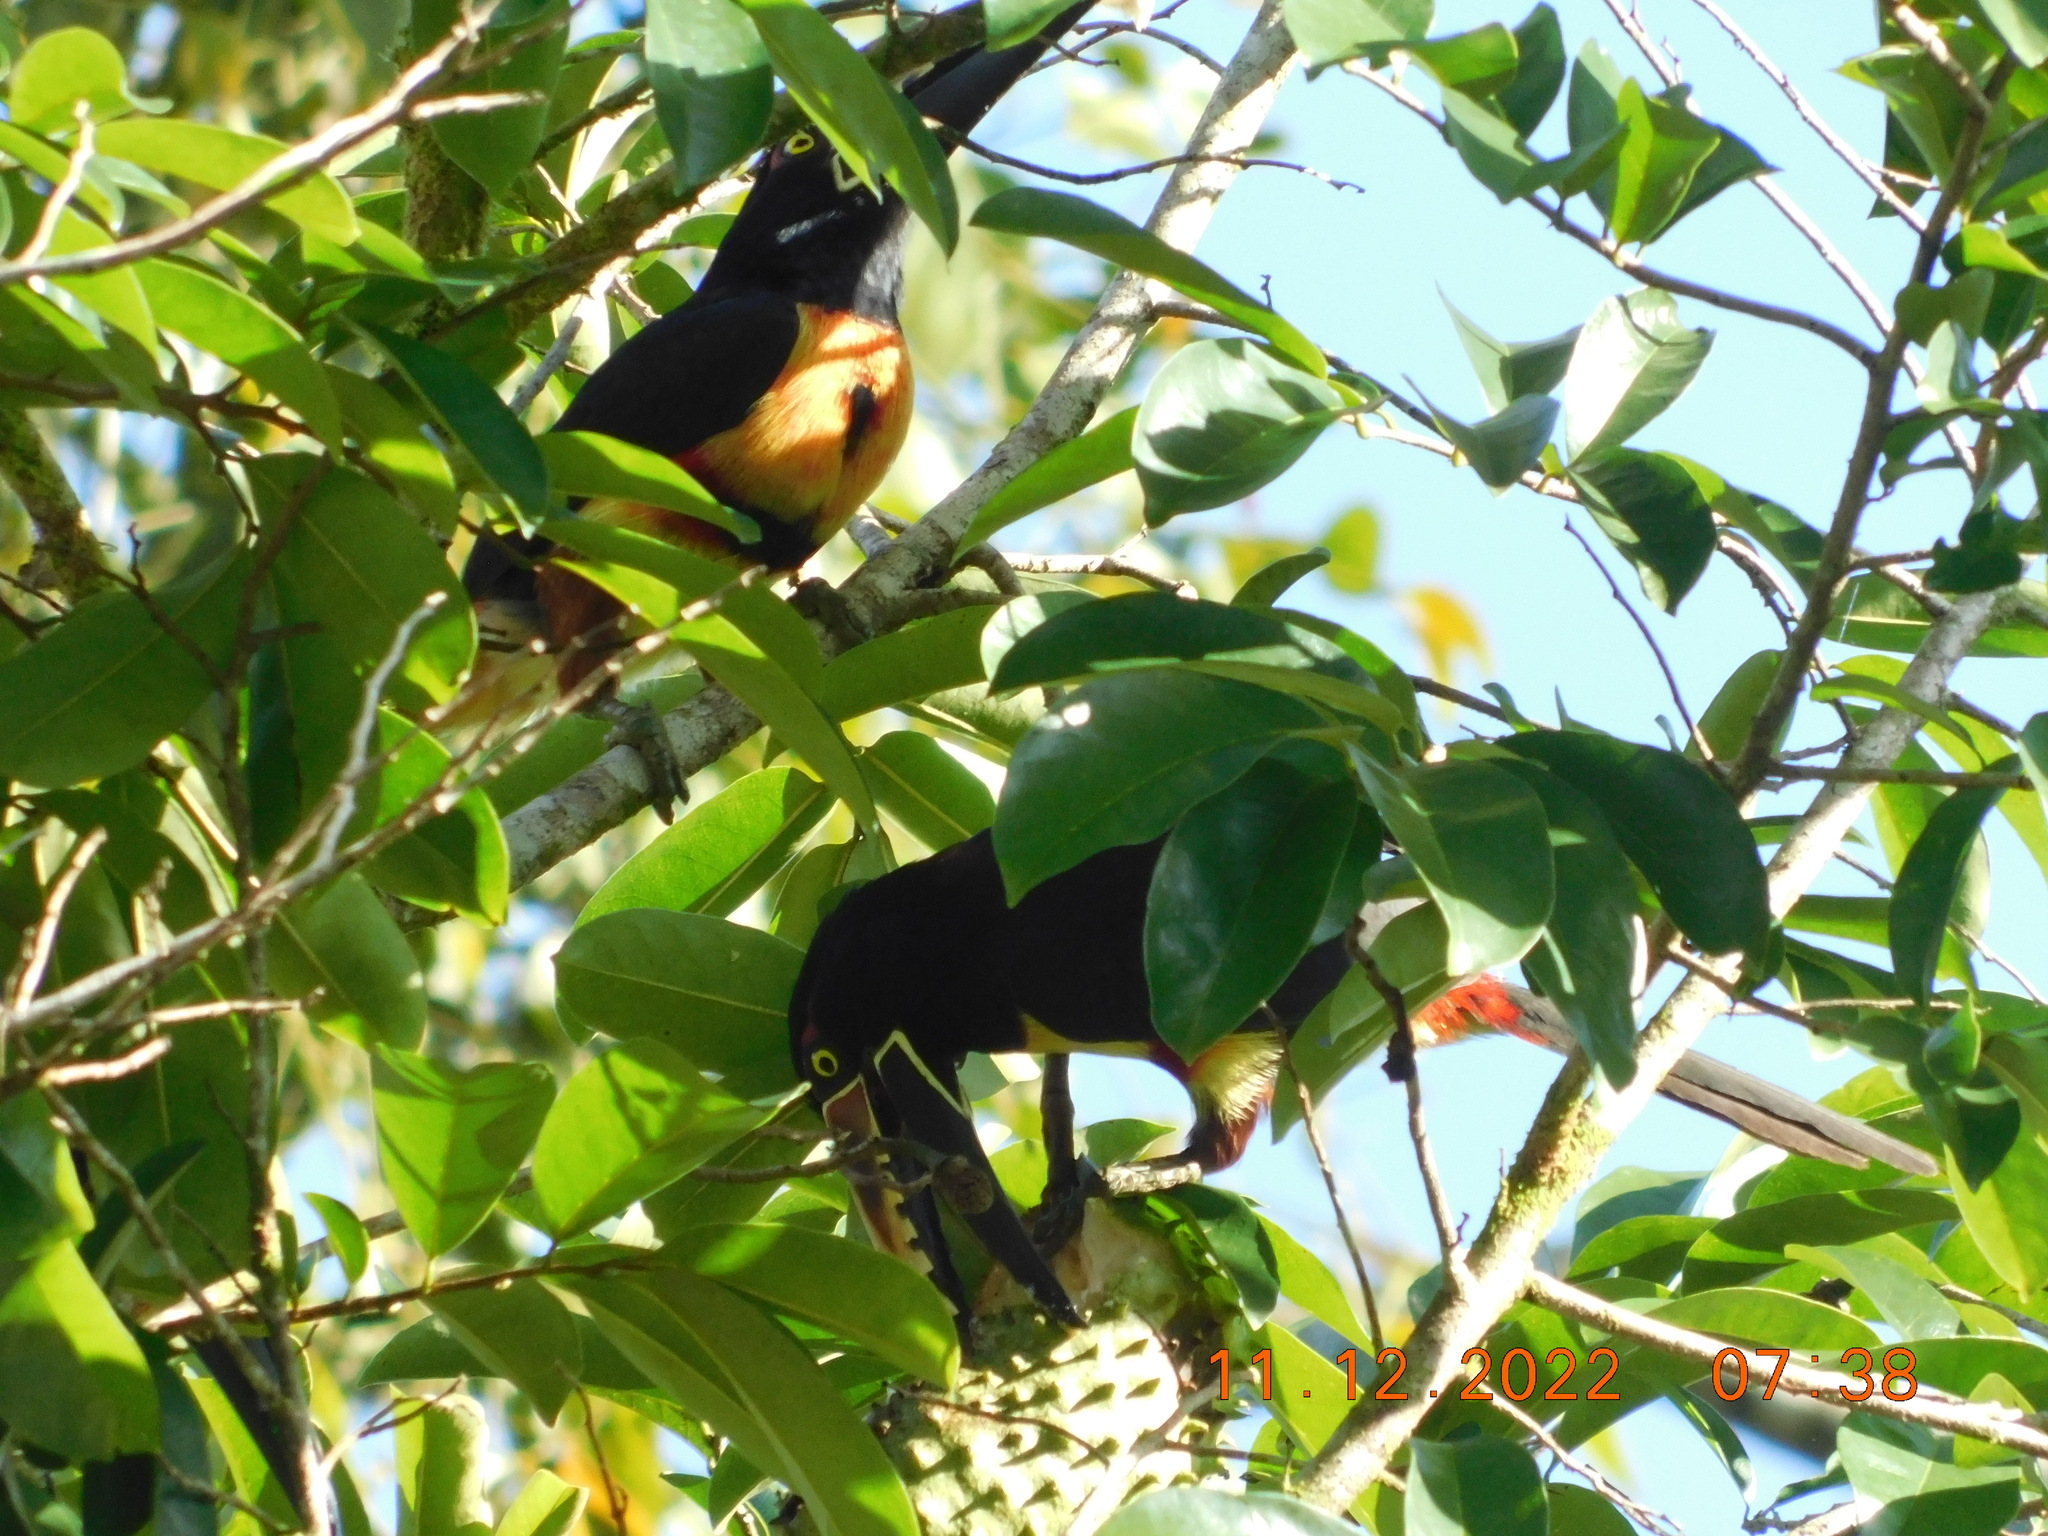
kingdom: Animalia
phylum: Chordata
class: Aves
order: Piciformes
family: Ramphastidae
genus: Pteroglossus
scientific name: Pteroglossus torquatus
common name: Collared aracari
